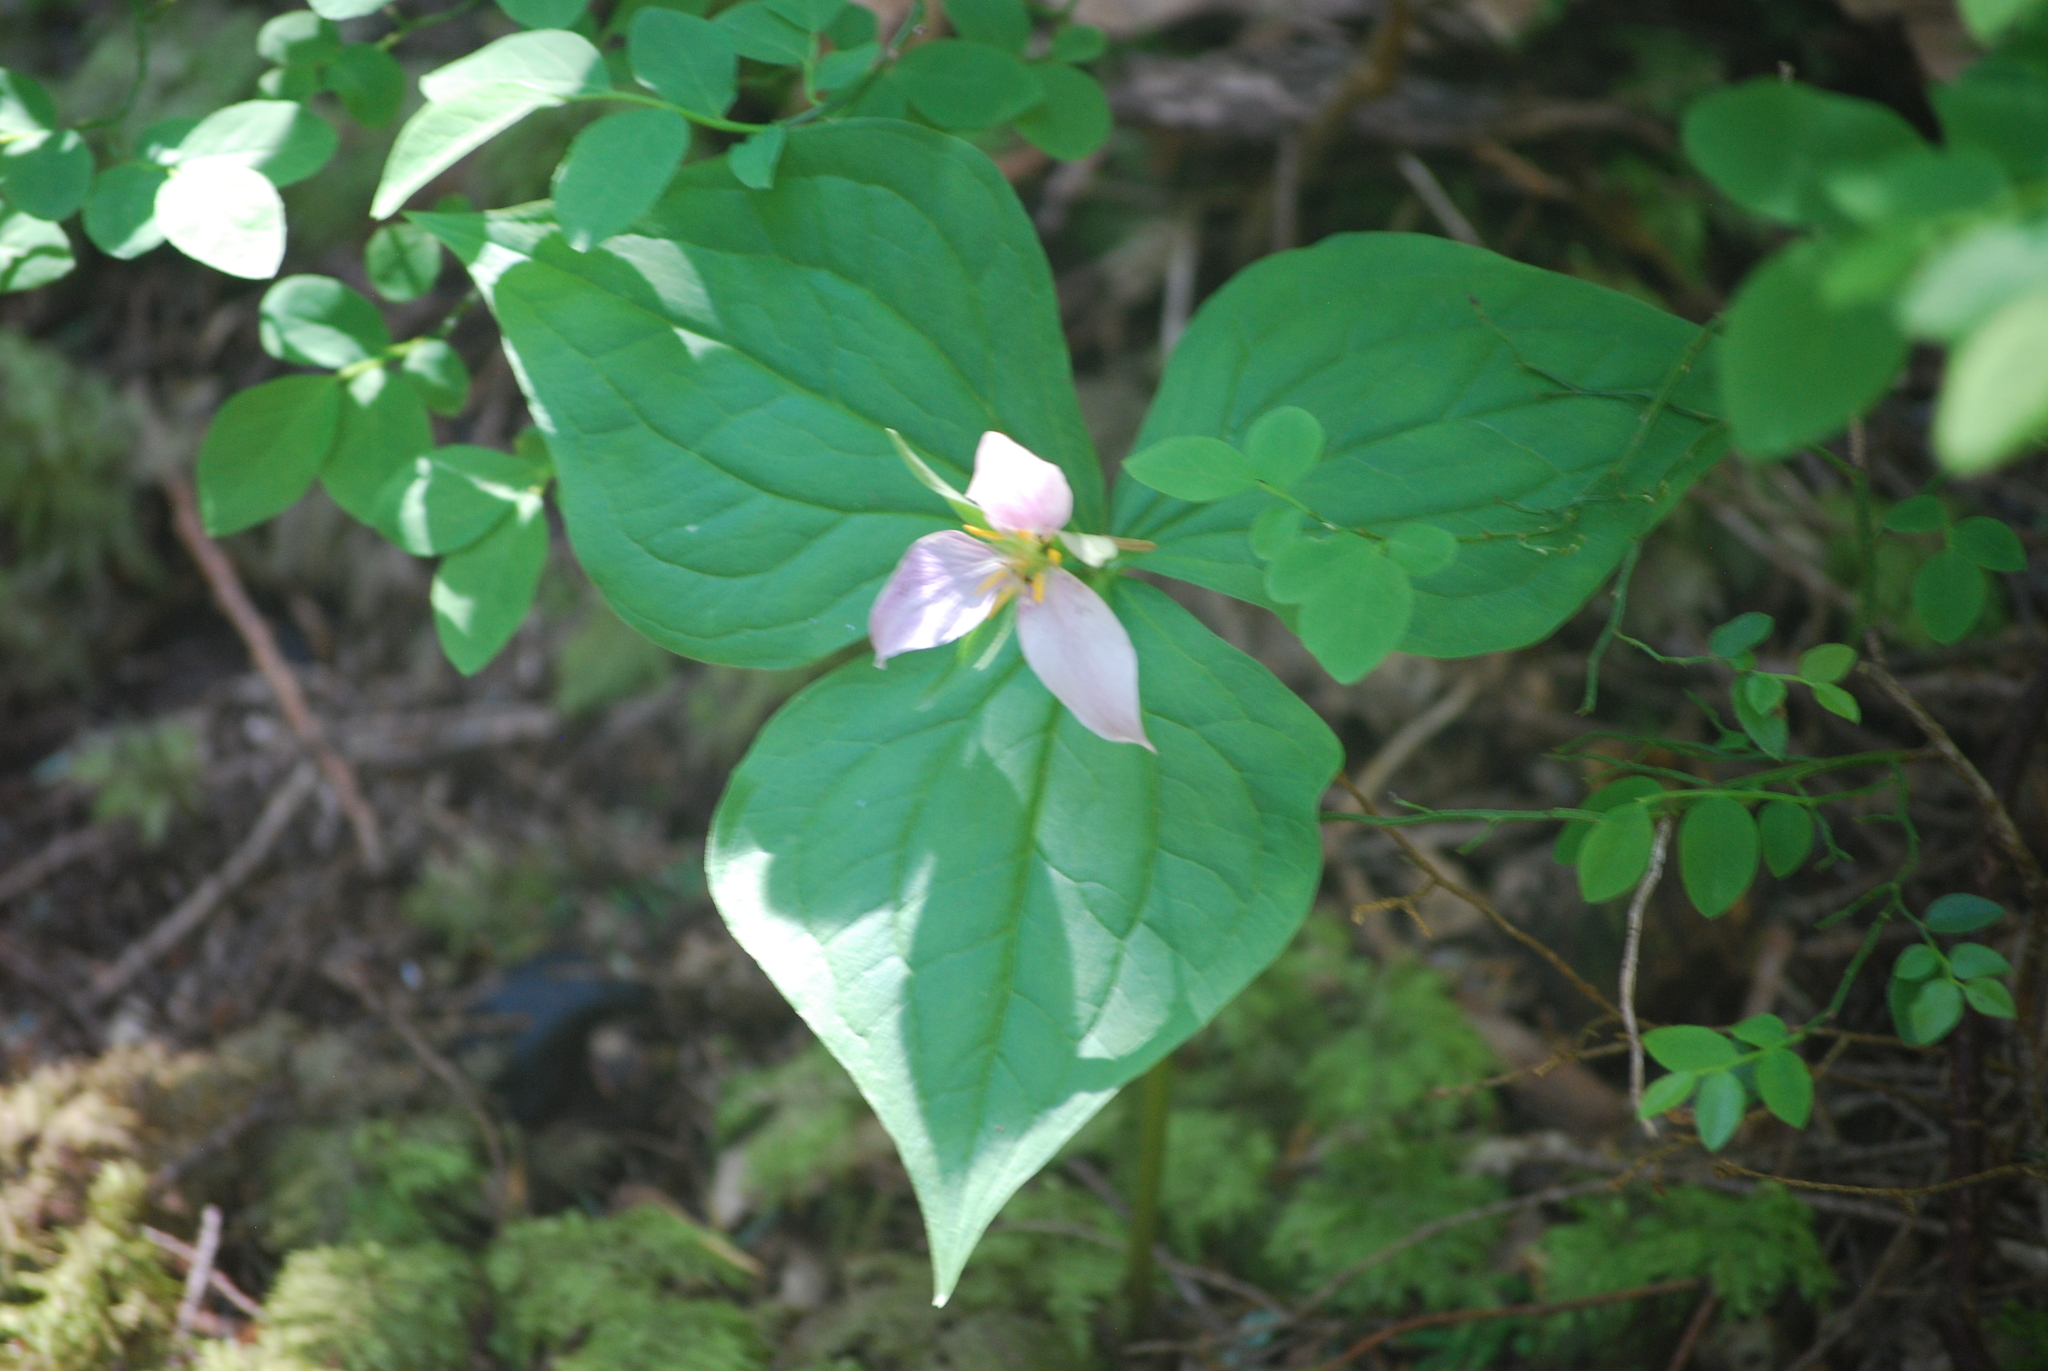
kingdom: Plantae
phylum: Tracheophyta
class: Liliopsida
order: Liliales
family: Melanthiaceae
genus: Trillium
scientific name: Trillium ovatum
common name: Pacific trillium
